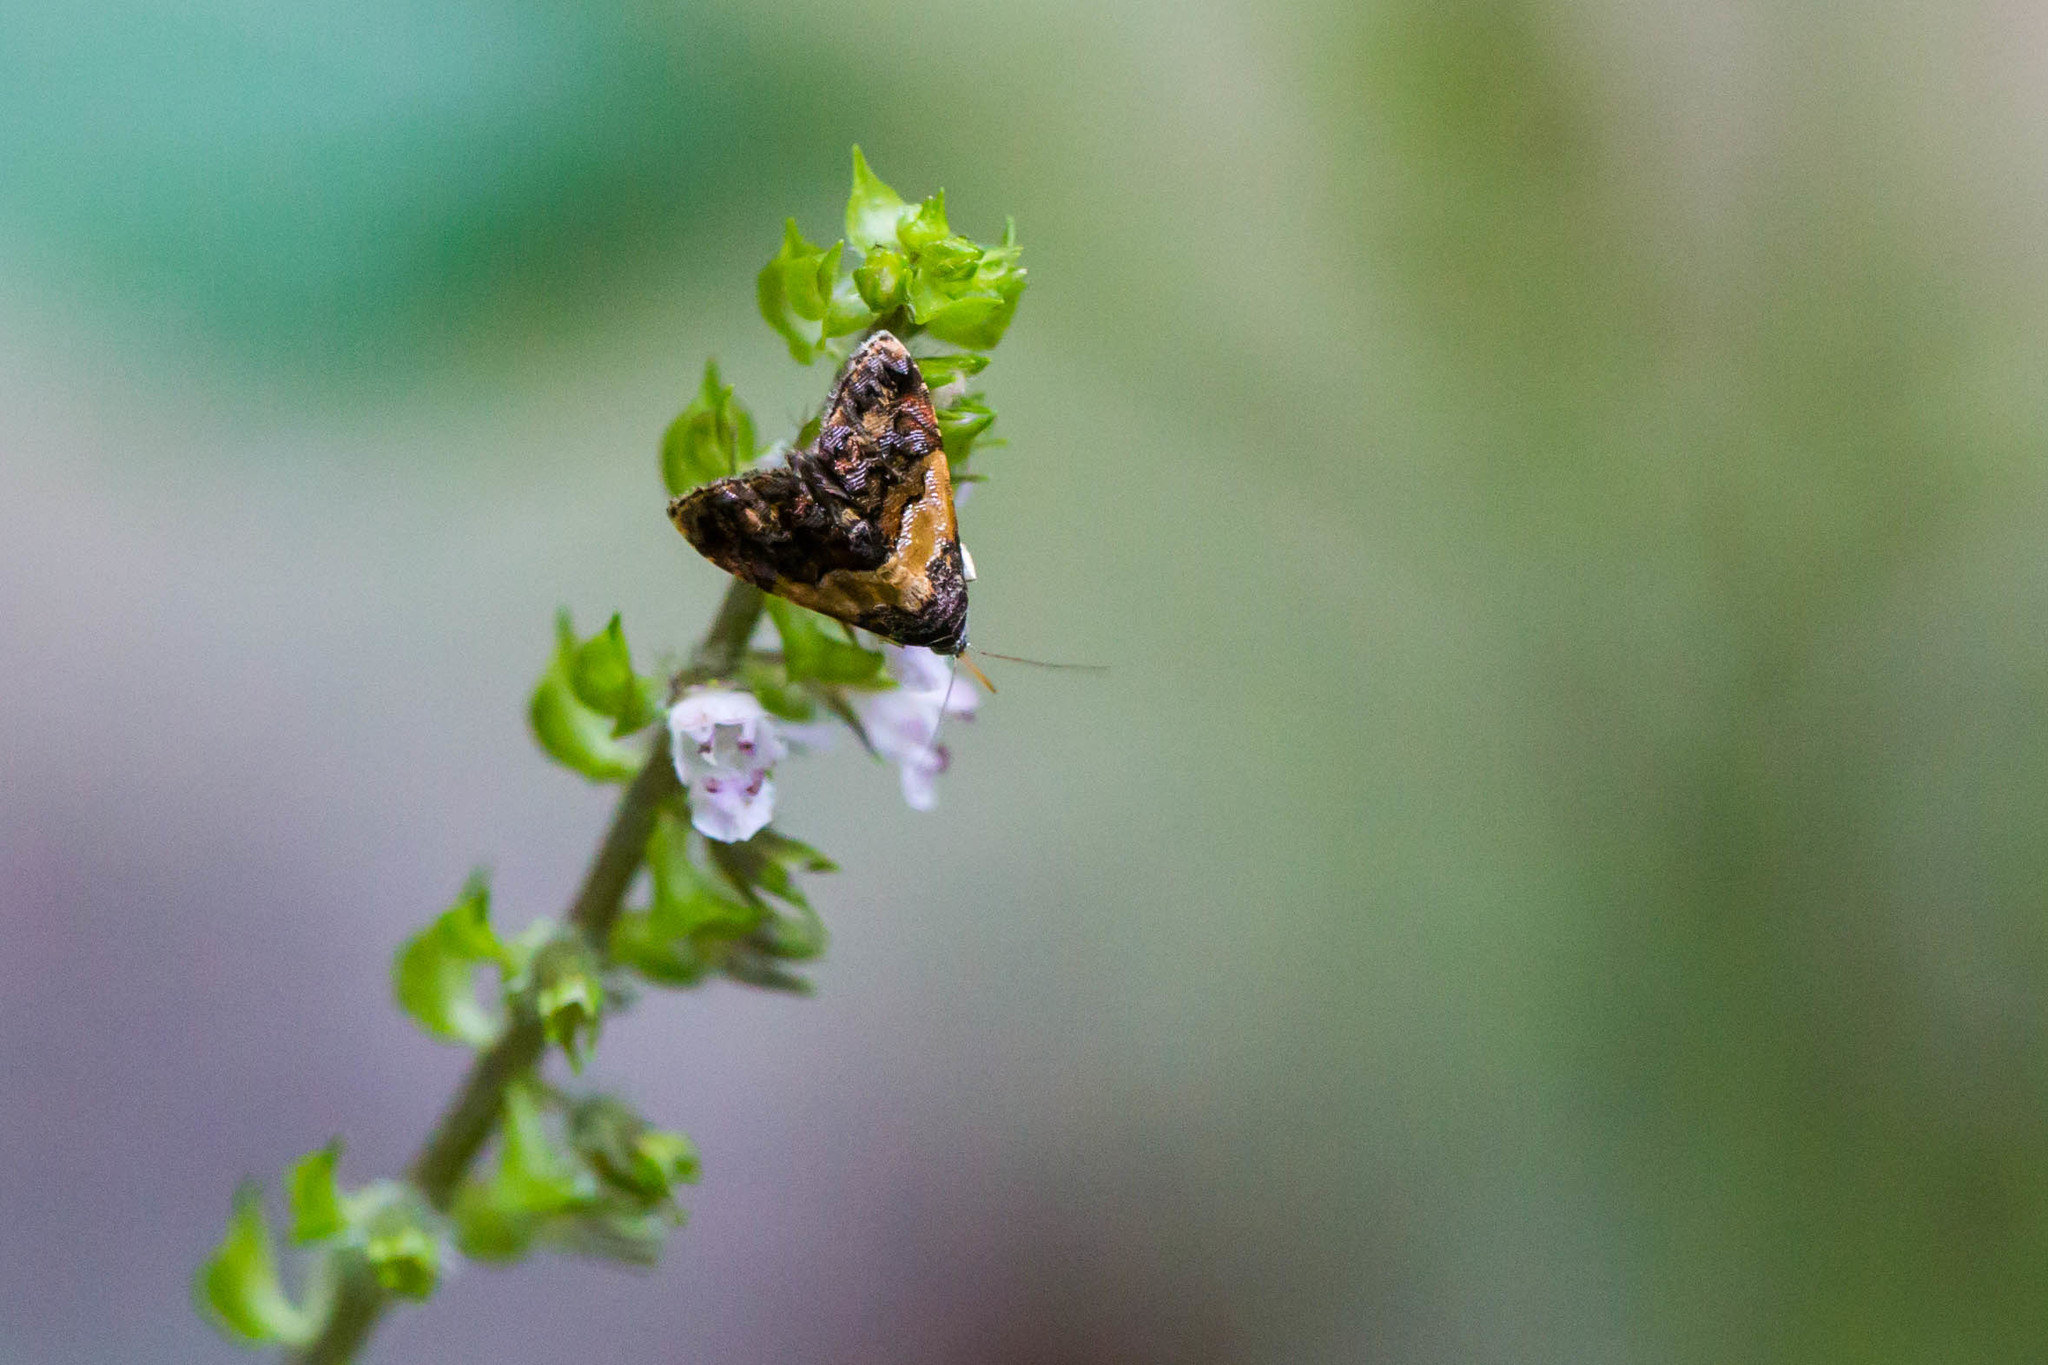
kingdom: Animalia
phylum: Arthropoda
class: Insecta
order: Lepidoptera
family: Noctuidae
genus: Tripudia
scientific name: Tripudia flavofasciata
